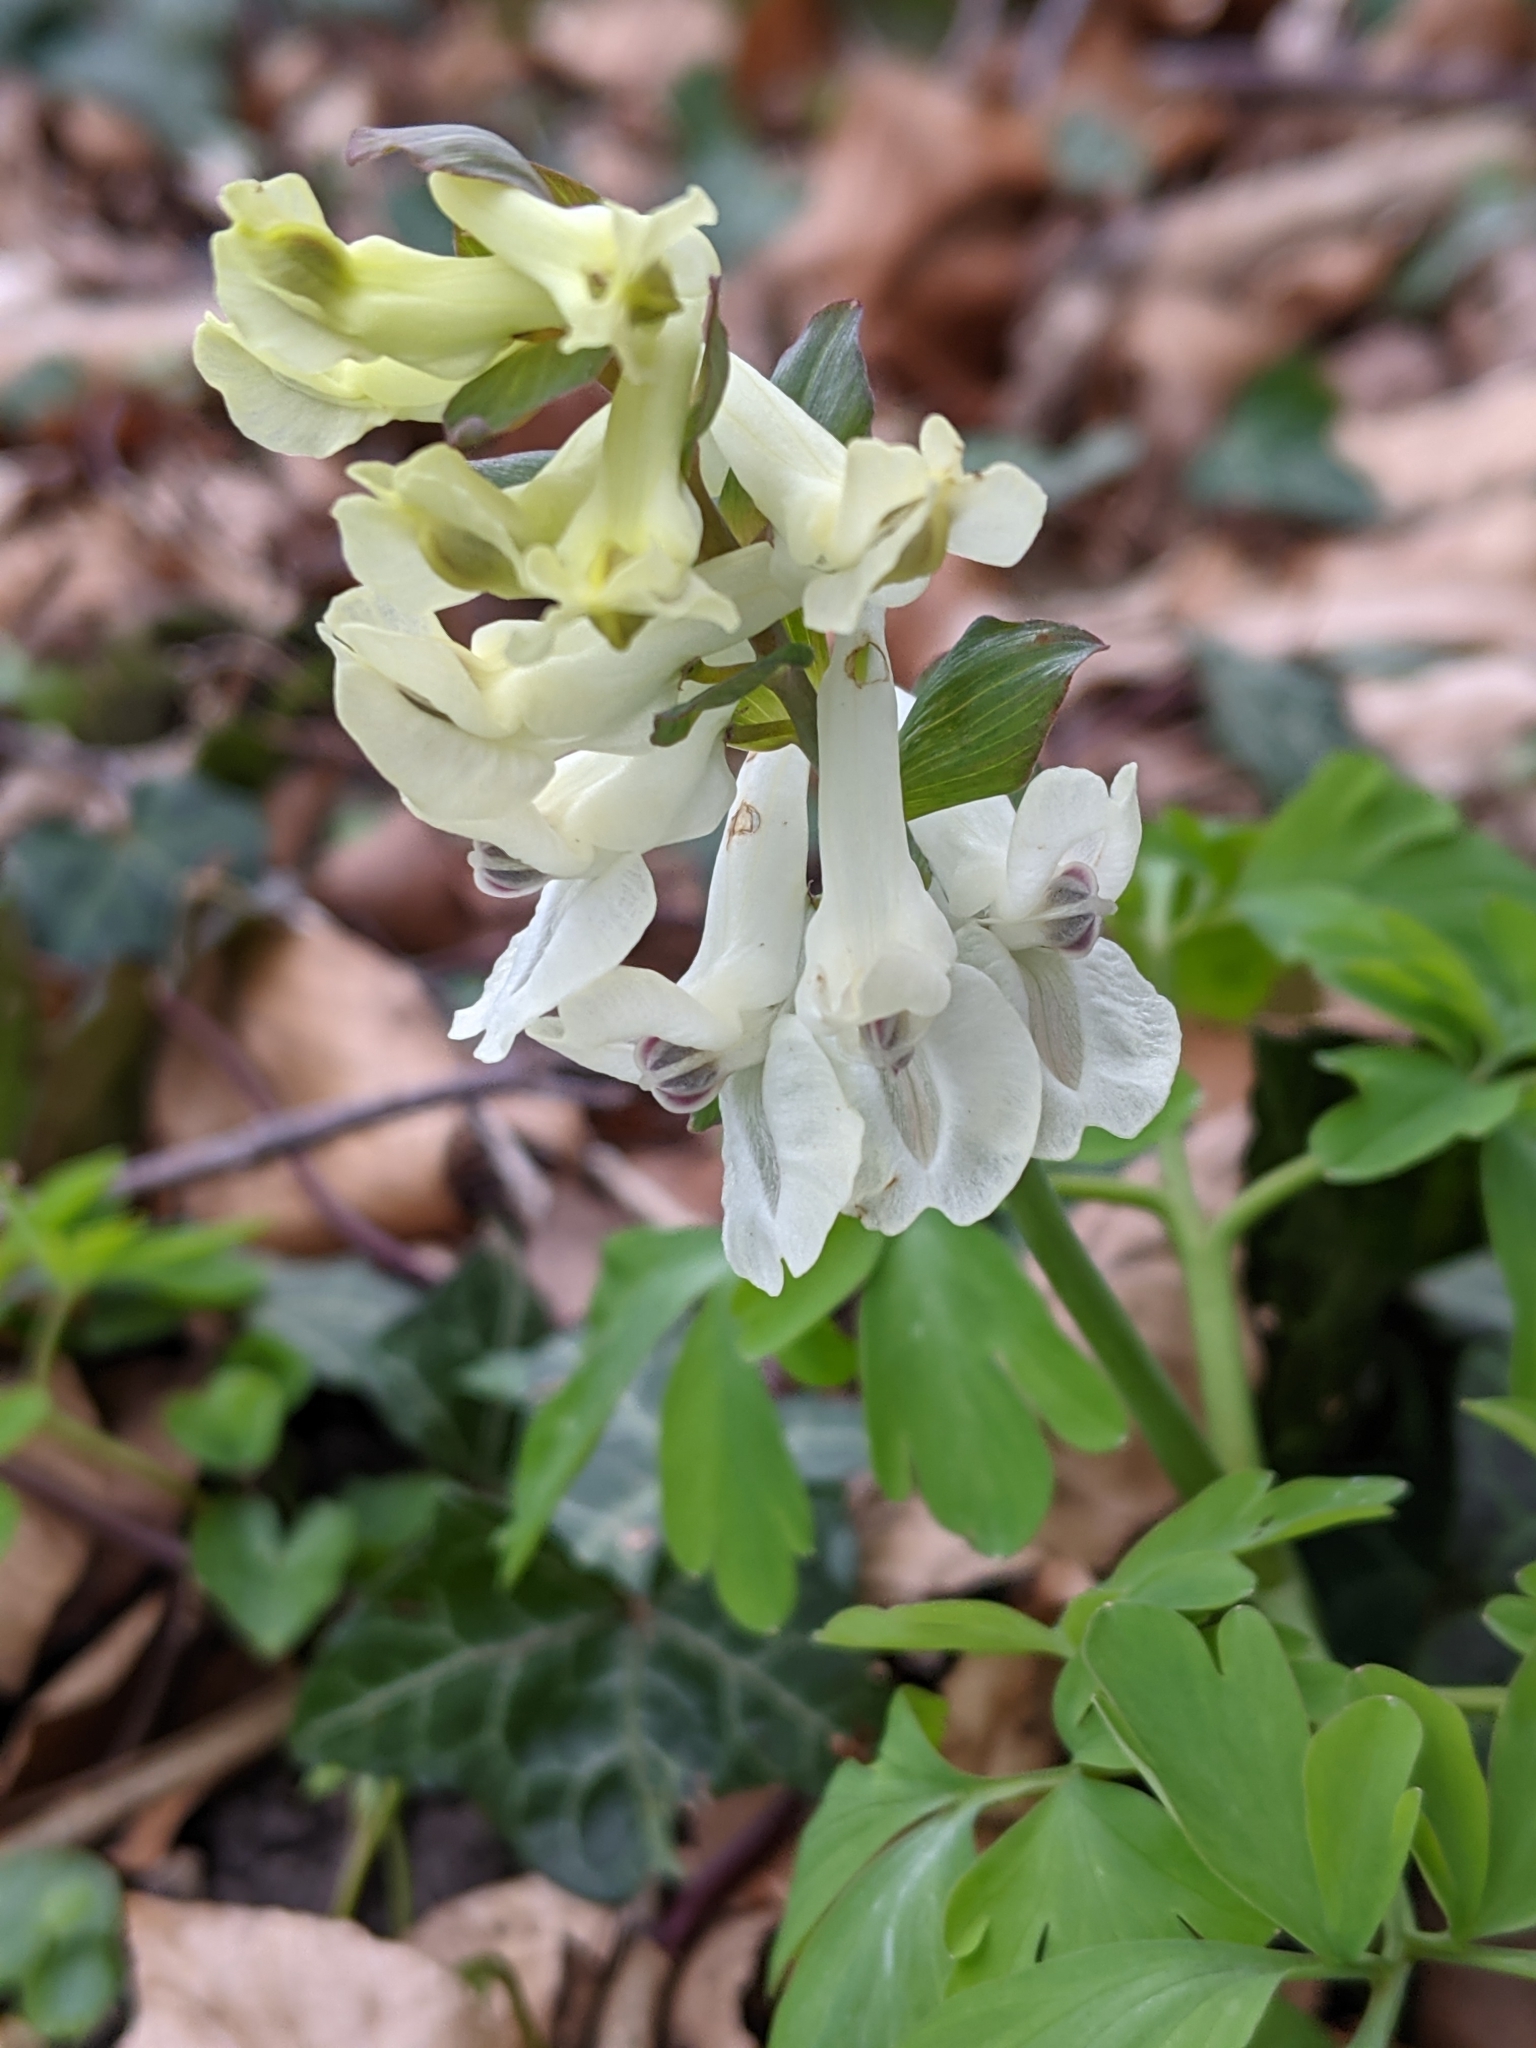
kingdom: Plantae
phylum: Tracheophyta
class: Magnoliopsida
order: Ranunculales
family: Papaveraceae
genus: Corydalis
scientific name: Corydalis cava
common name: Hollowroot
